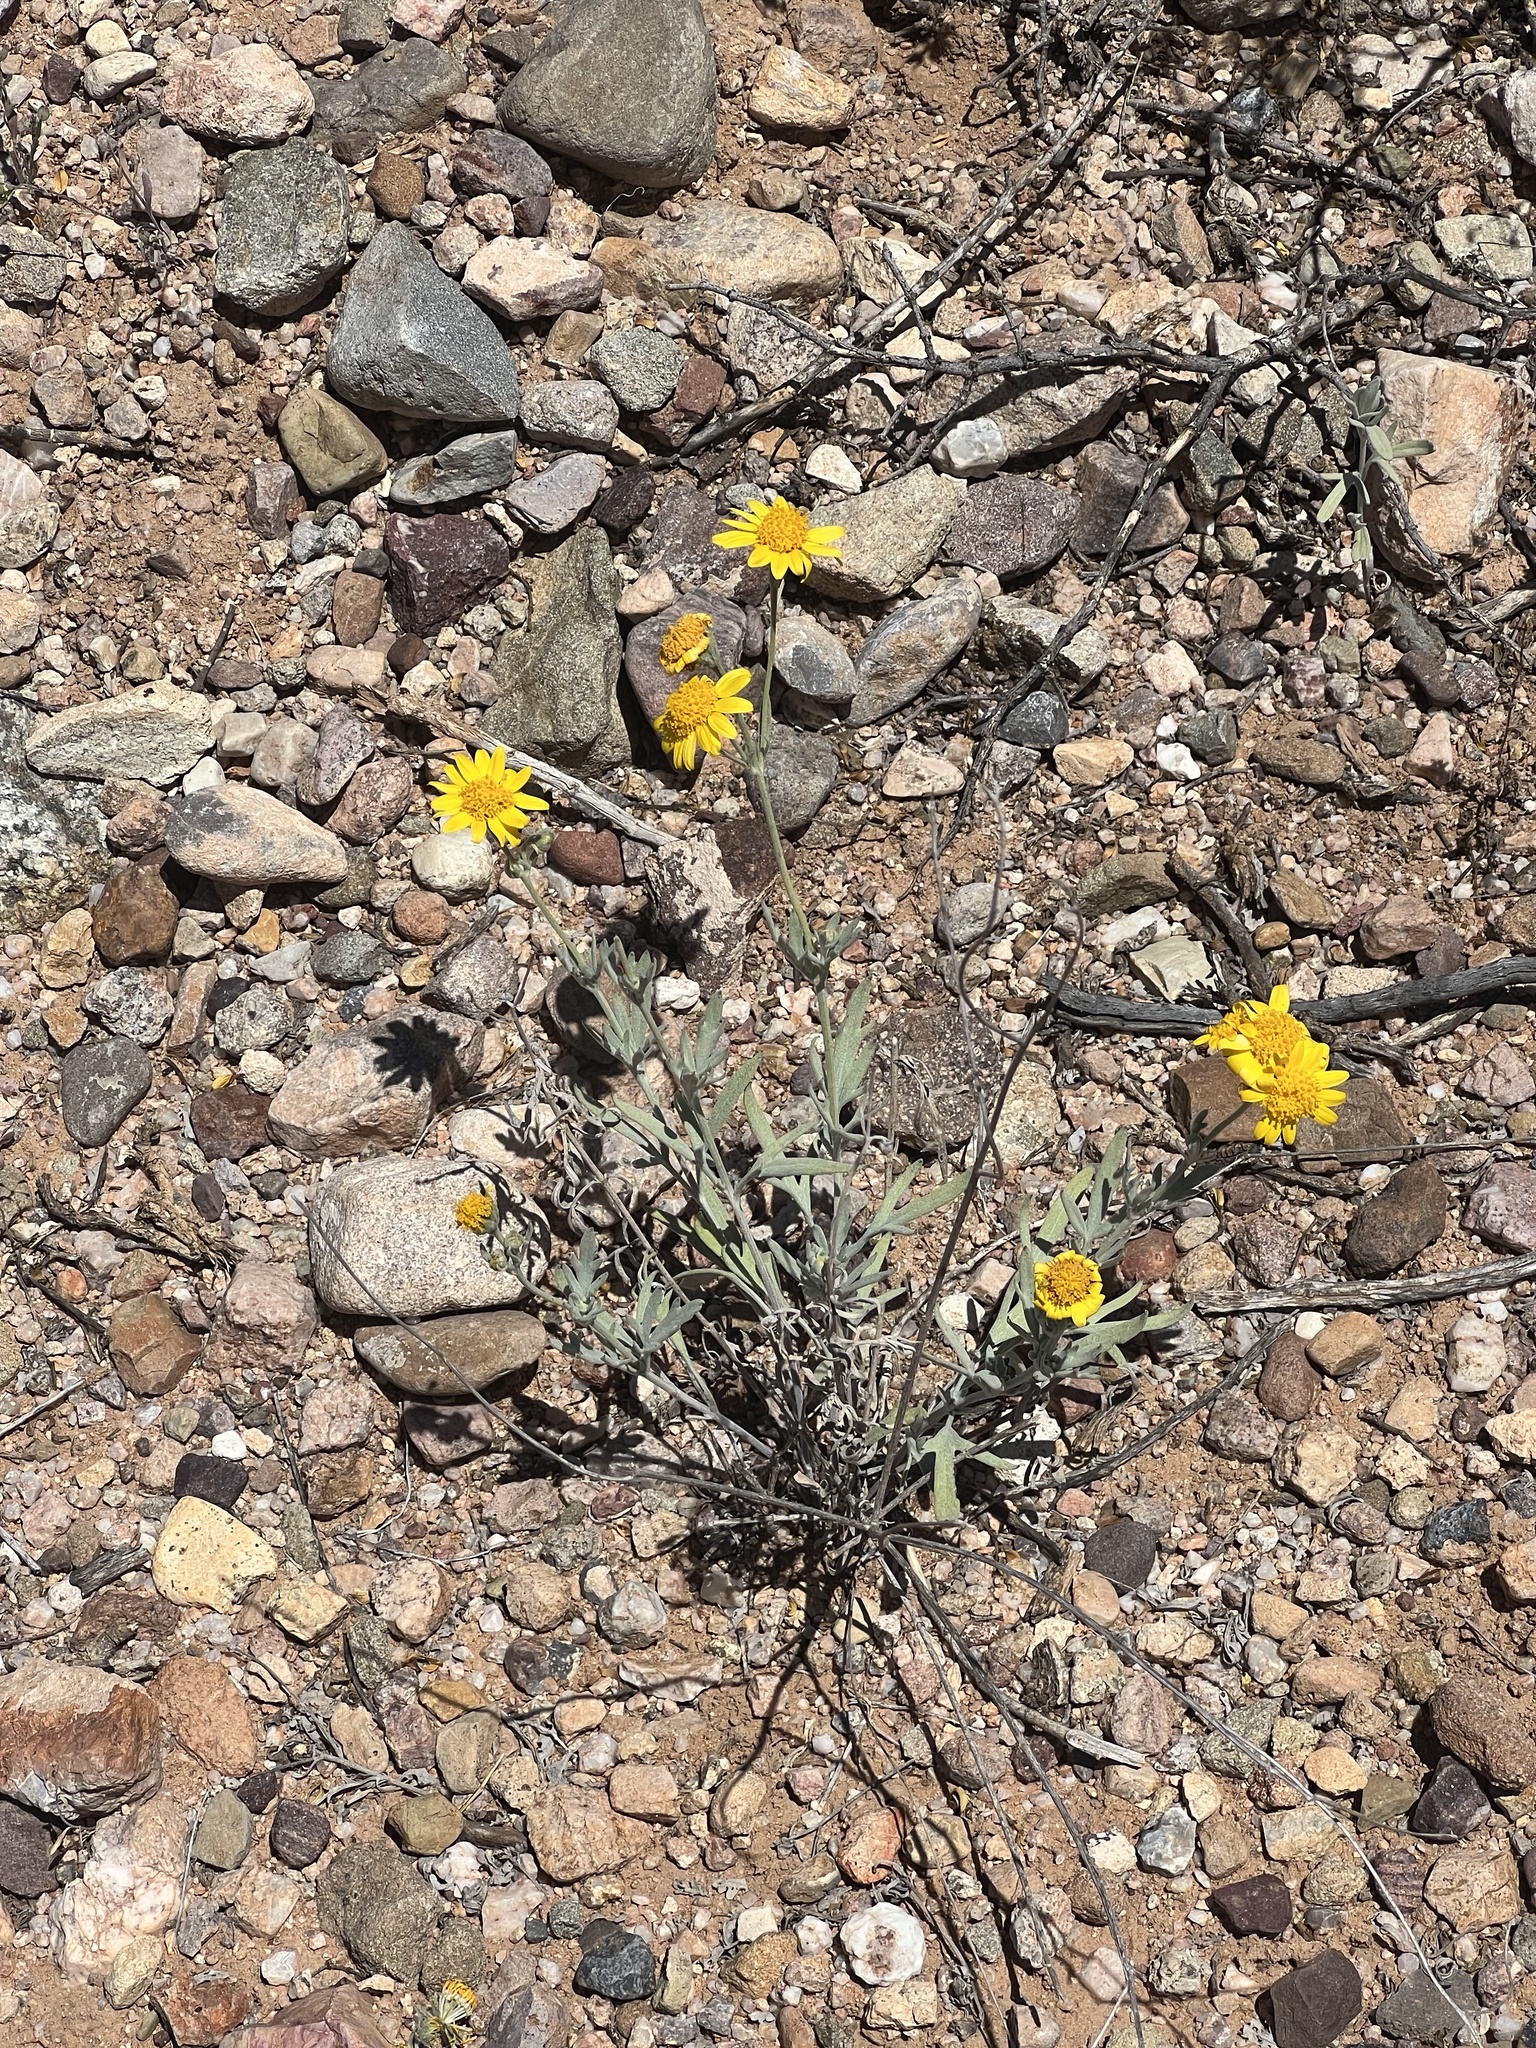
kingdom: Plantae
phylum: Tracheophyta
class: Magnoliopsida
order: Asterales
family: Asteraceae
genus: Picradeniopsis
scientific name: Picradeniopsis absinthifolia
